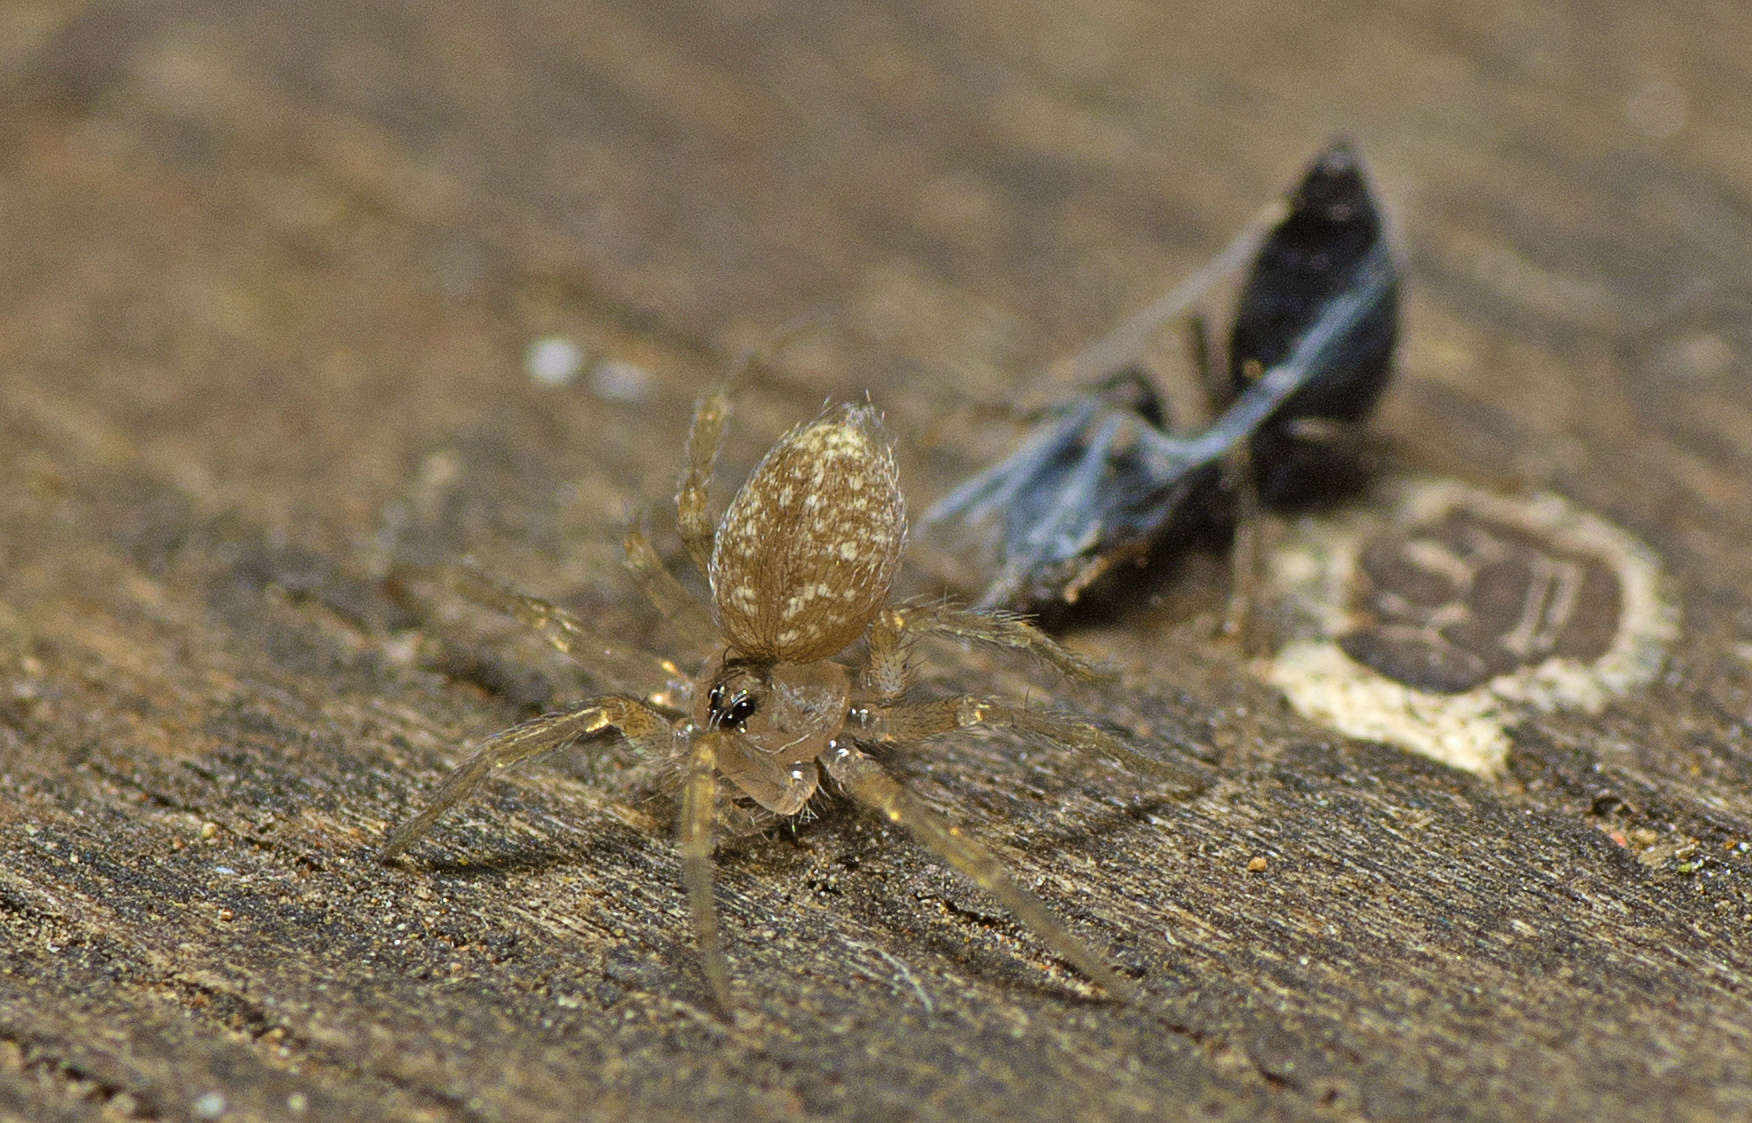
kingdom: Animalia
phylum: Arthropoda
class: Arachnida
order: Araneae
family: Oecobiidae
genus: Oecobius
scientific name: Oecobius navus
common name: Flatmesh weaver
